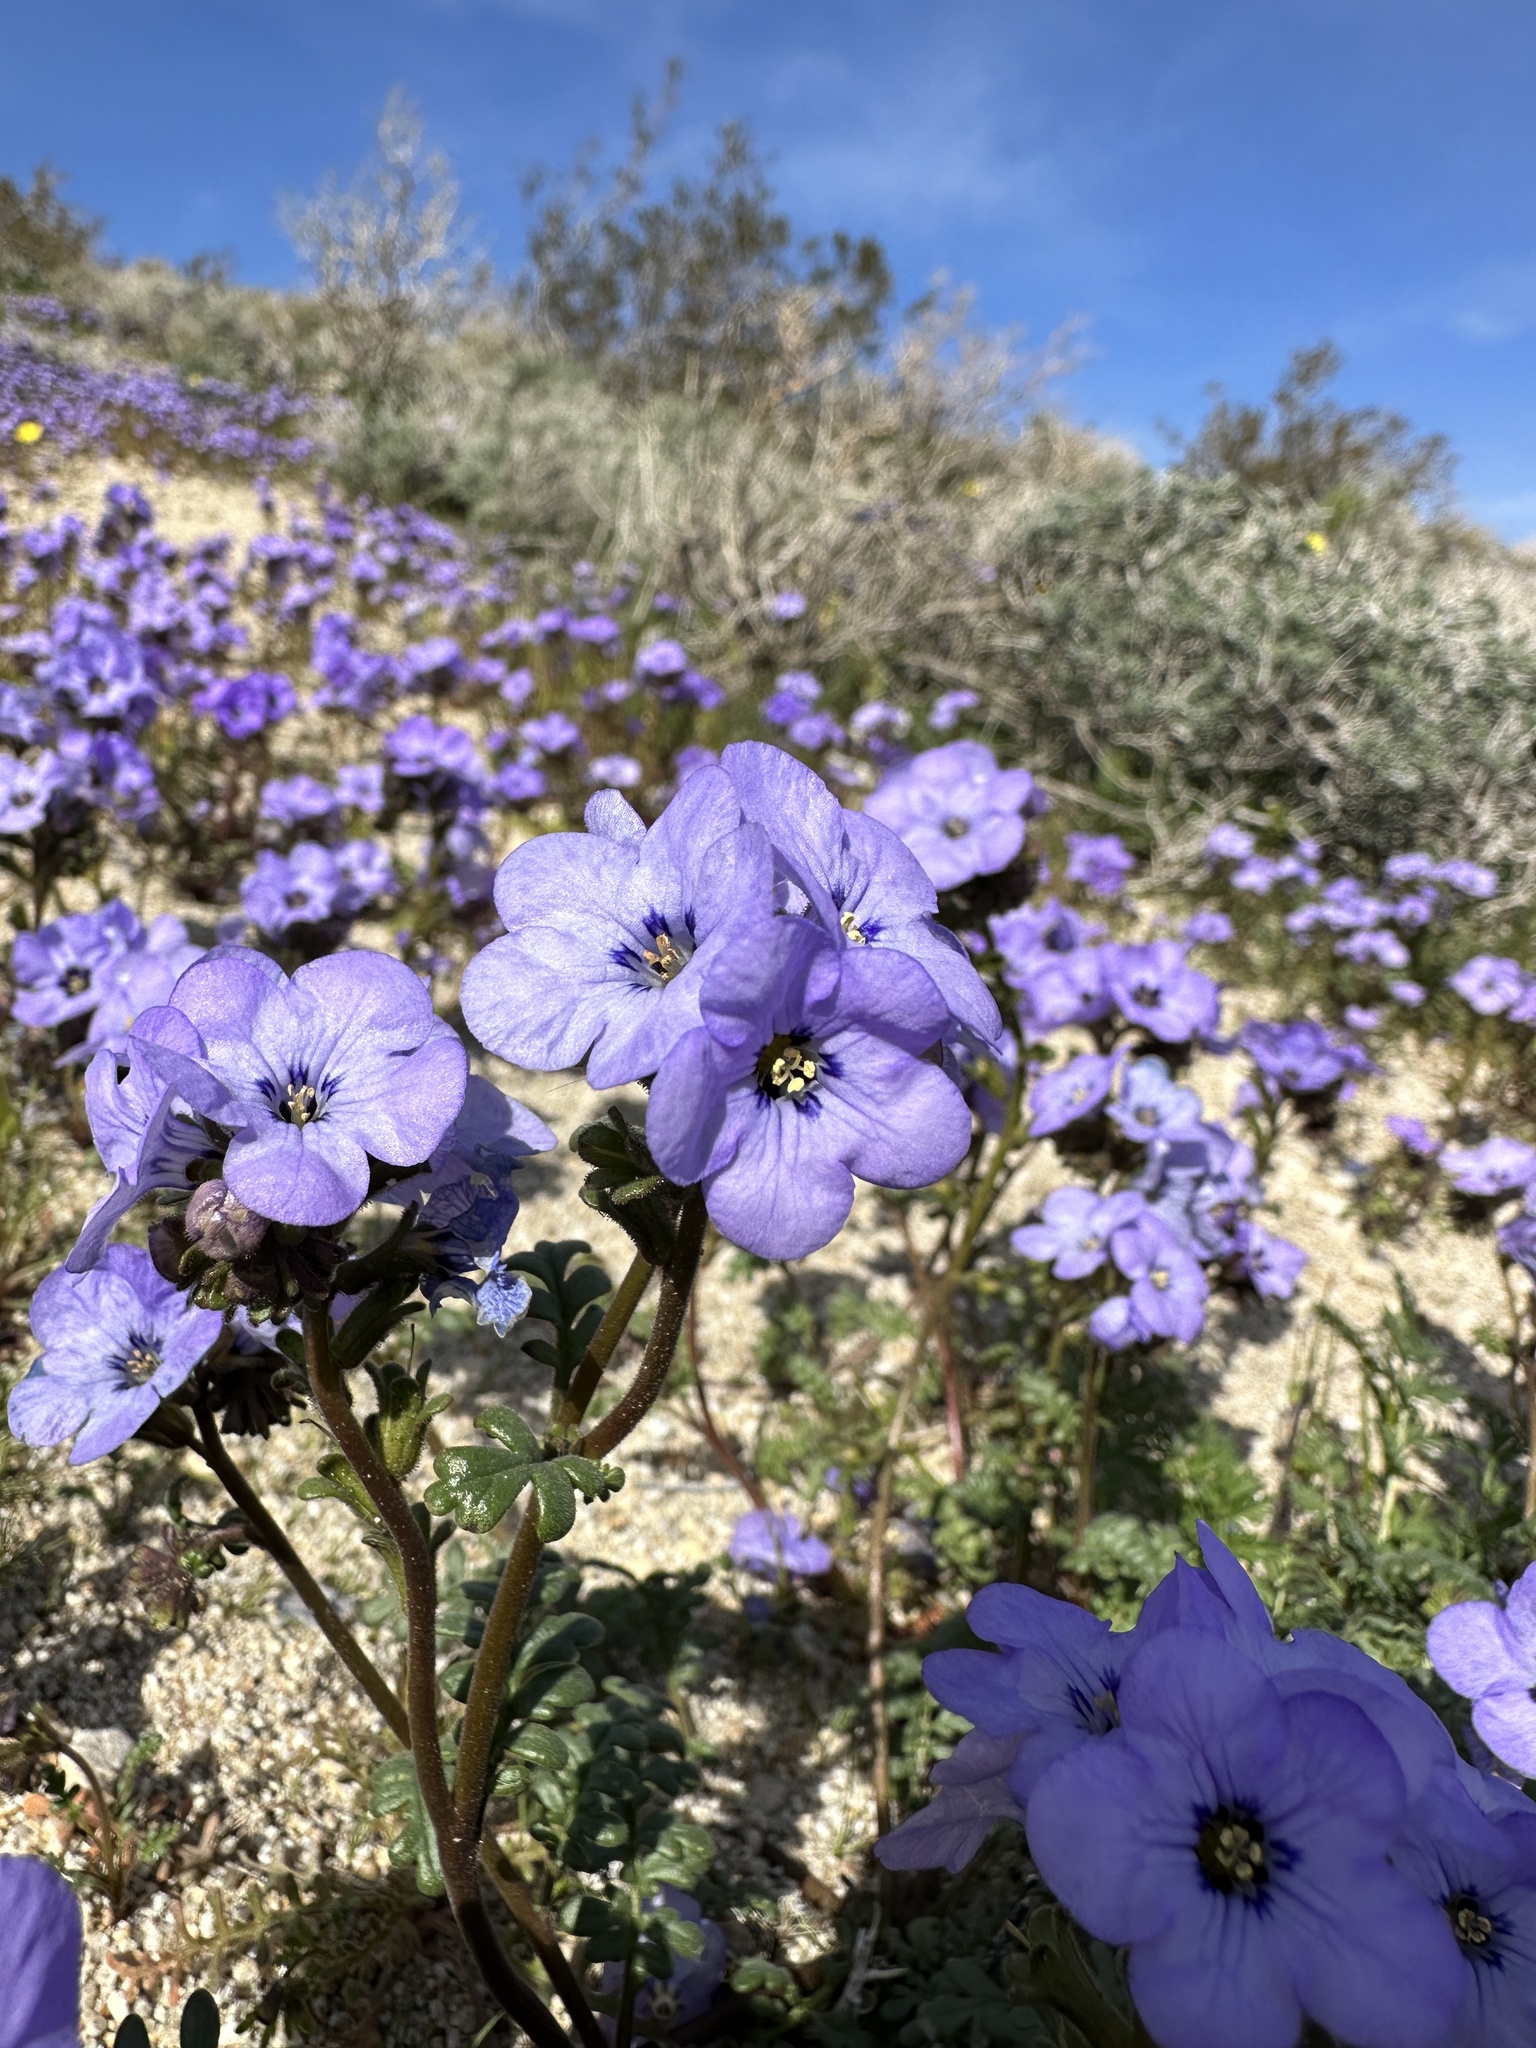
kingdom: Plantae
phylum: Tracheophyta
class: Magnoliopsida
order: Boraginales
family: Hydrophyllaceae
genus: Phacelia
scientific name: Phacelia fremontii
